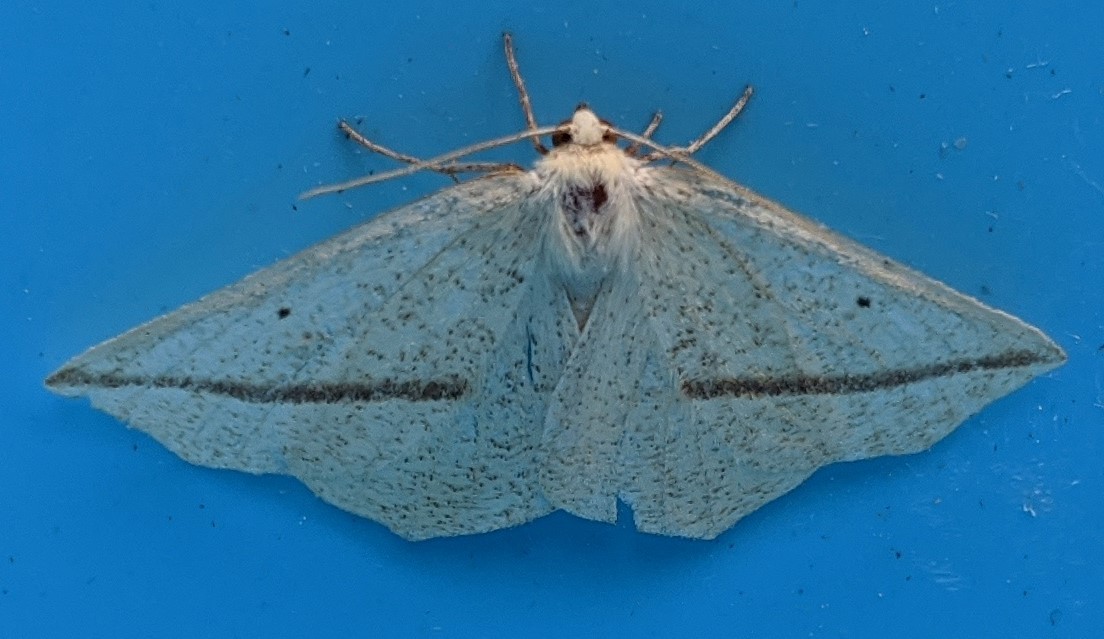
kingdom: Animalia
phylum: Arthropoda
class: Insecta
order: Lepidoptera
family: Geometridae
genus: Tetracis
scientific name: Tetracis crocallata
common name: Yellow slant-line
